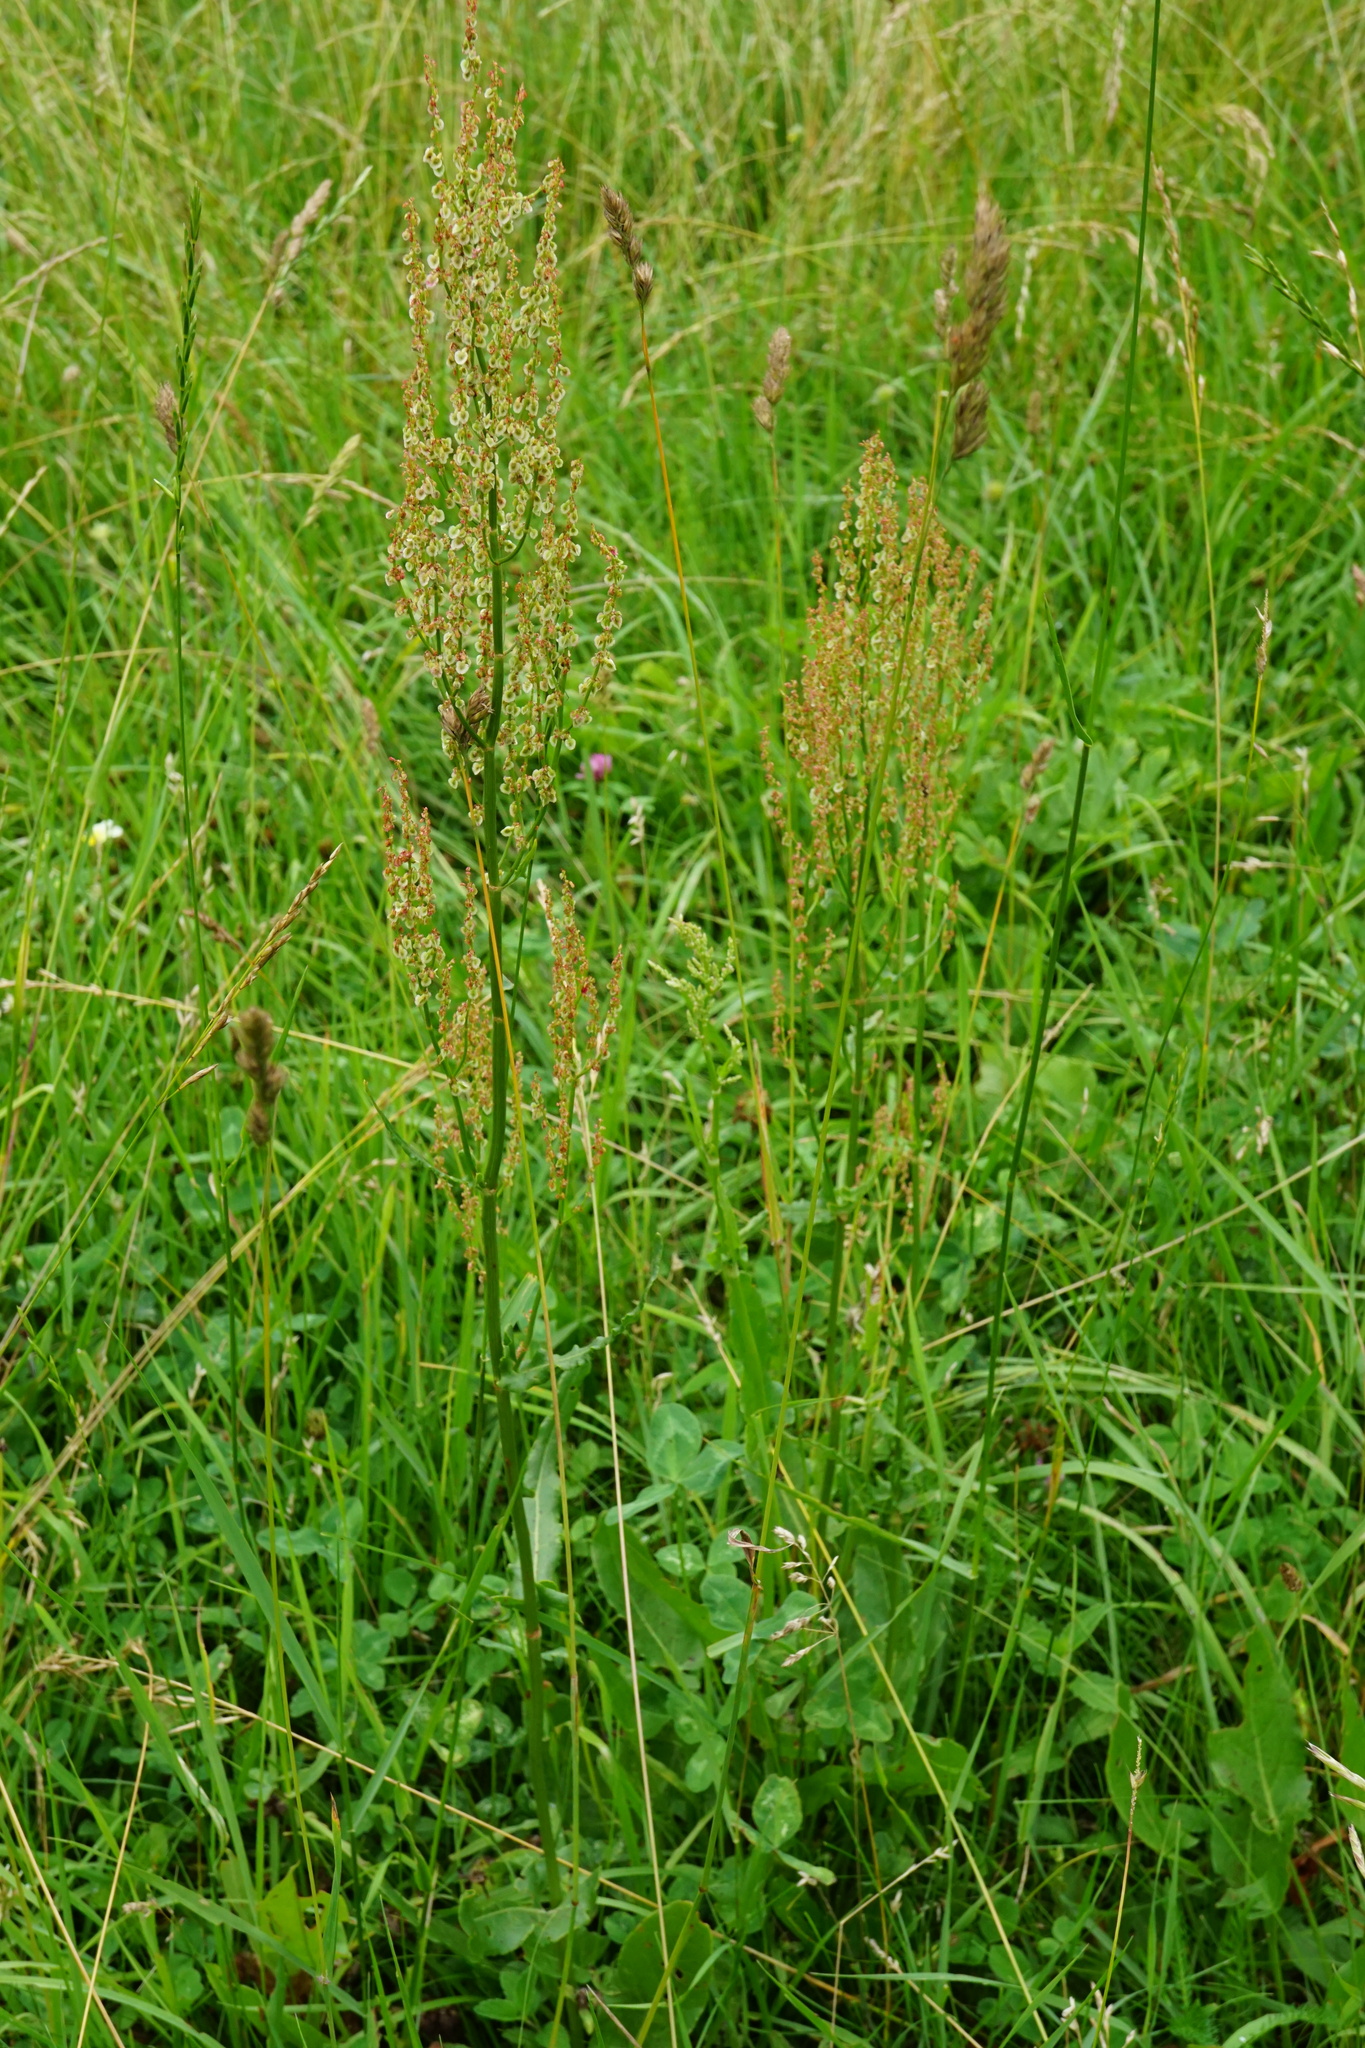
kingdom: Plantae
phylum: Tracheophyta
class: Magnoliopsida
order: Caryophyllales
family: Polygonaceae
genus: Rumex
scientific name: Rumex thyrsiflorus
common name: Garden sorrel
